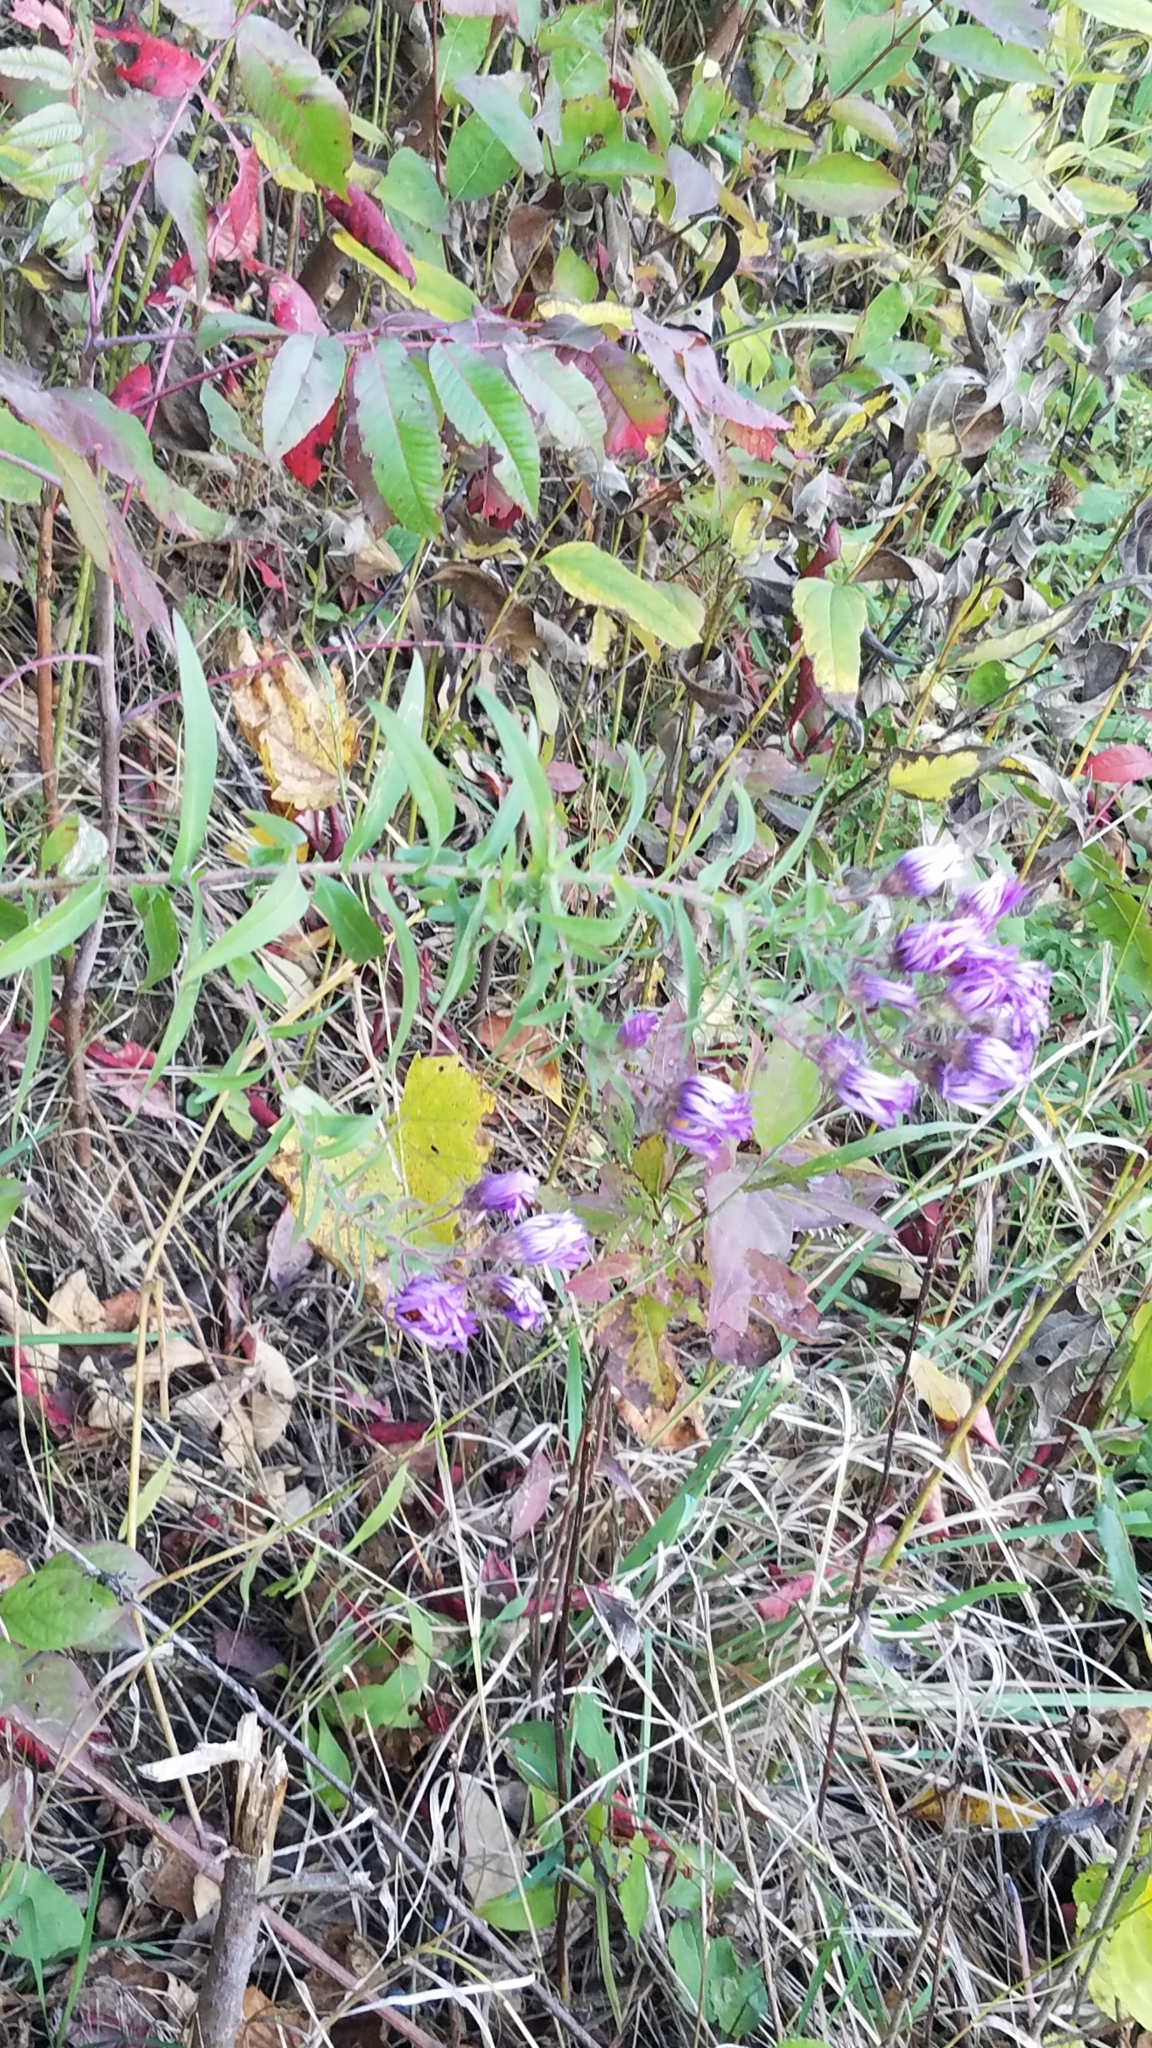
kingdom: Plantae
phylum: Tracheophyta
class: Magnoliopsida
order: Asterales
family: Asteraceae
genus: Symphyotrichum
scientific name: Symphyotrichum novae-angliae
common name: Michaelmas daisy
